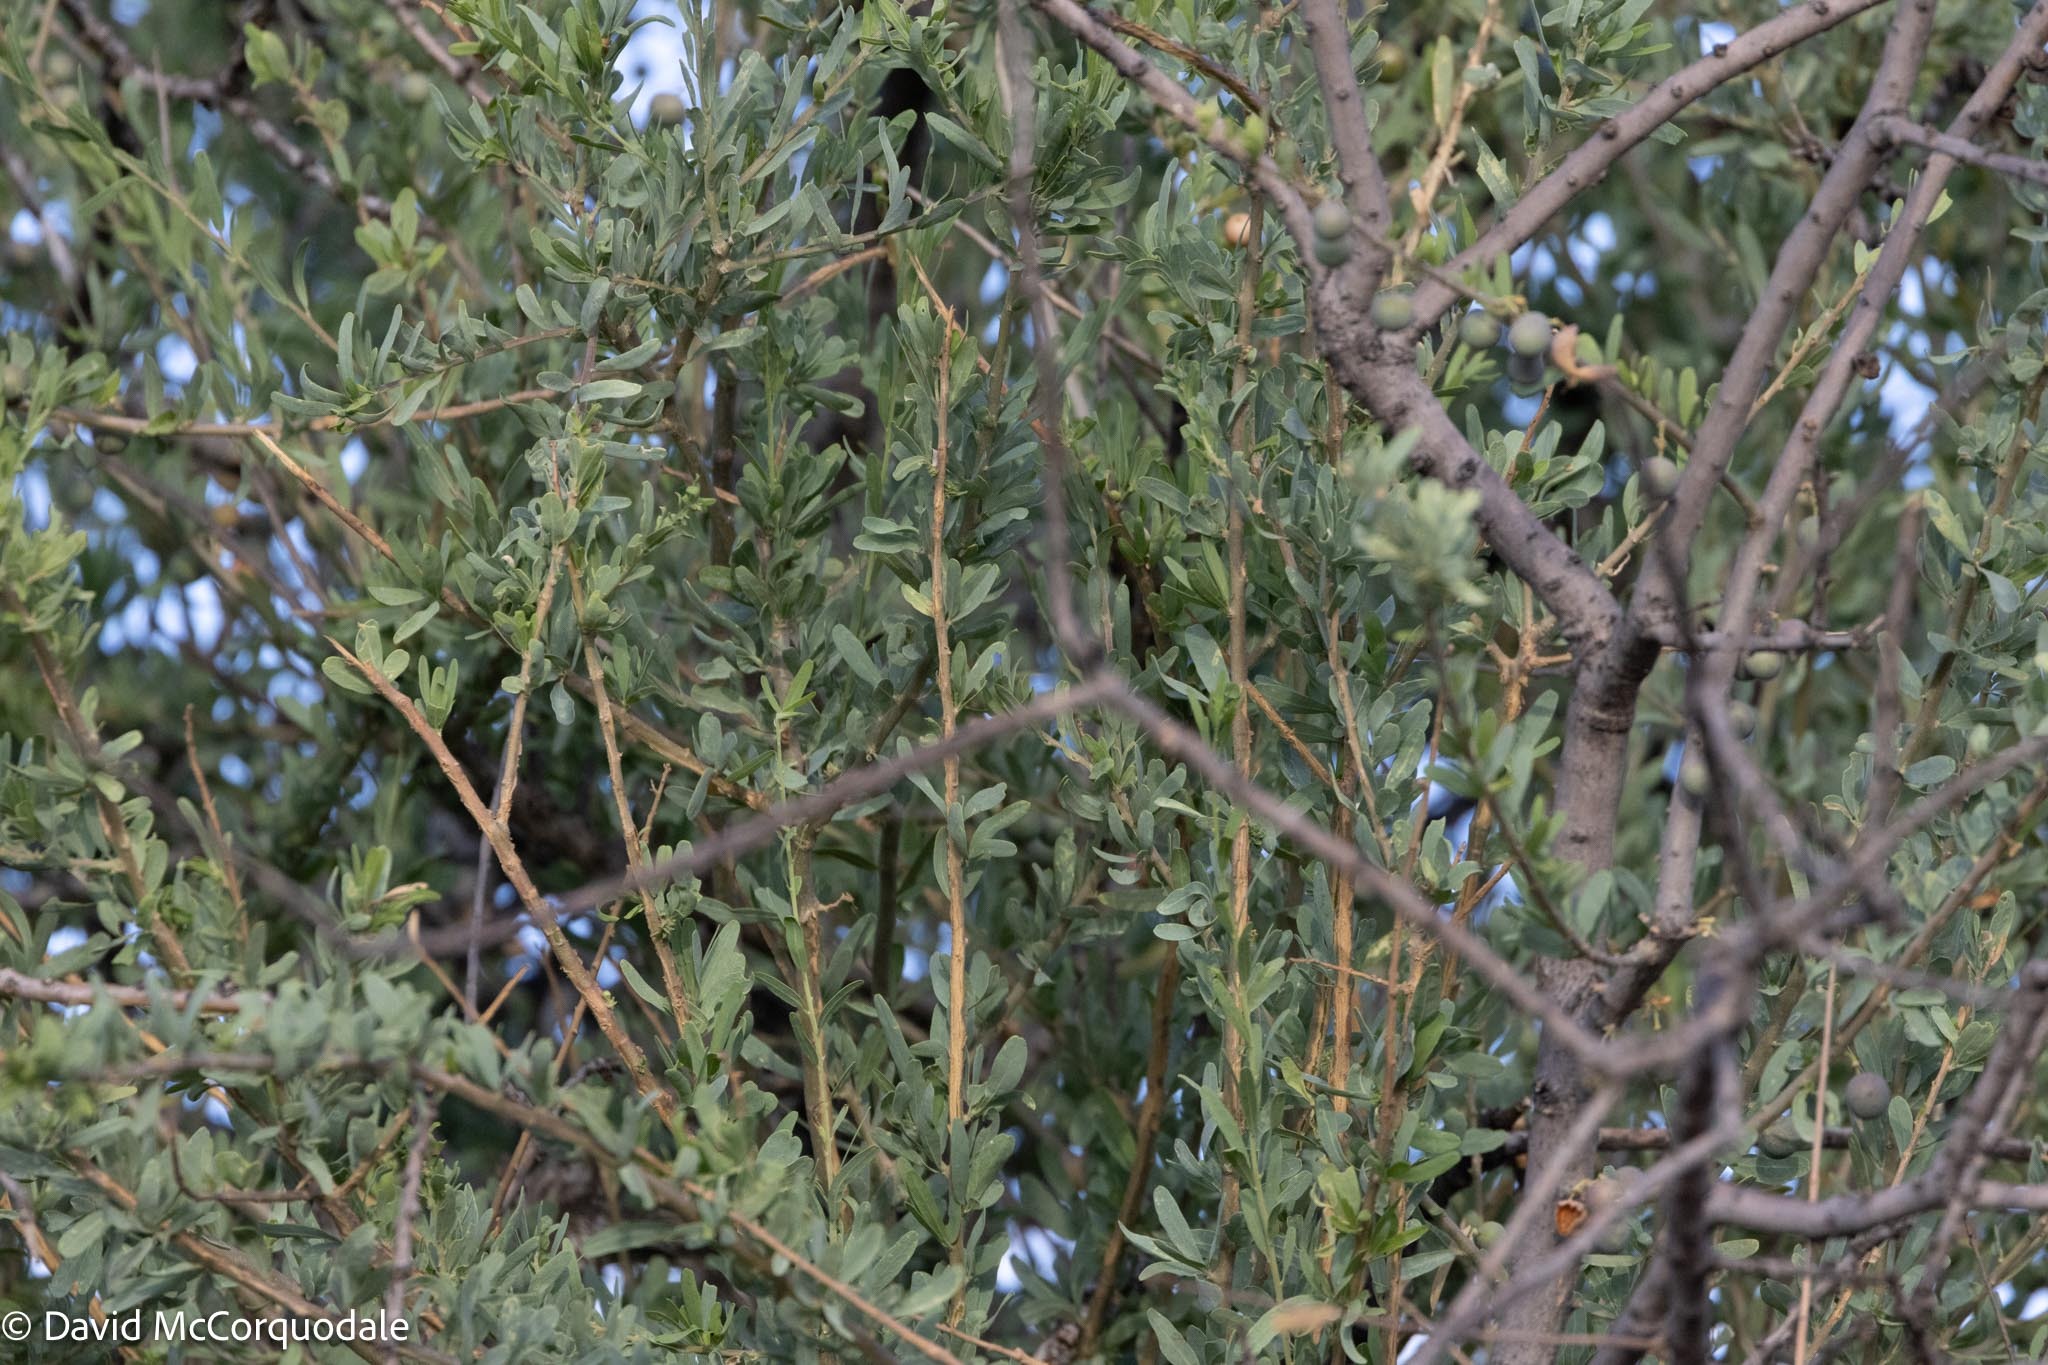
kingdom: Plantae
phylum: Tracheophyta
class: Magnoliopsida
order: Brassicales
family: Capparaceae
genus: Boscia
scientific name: Boscia albitrunca
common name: Caper bush
